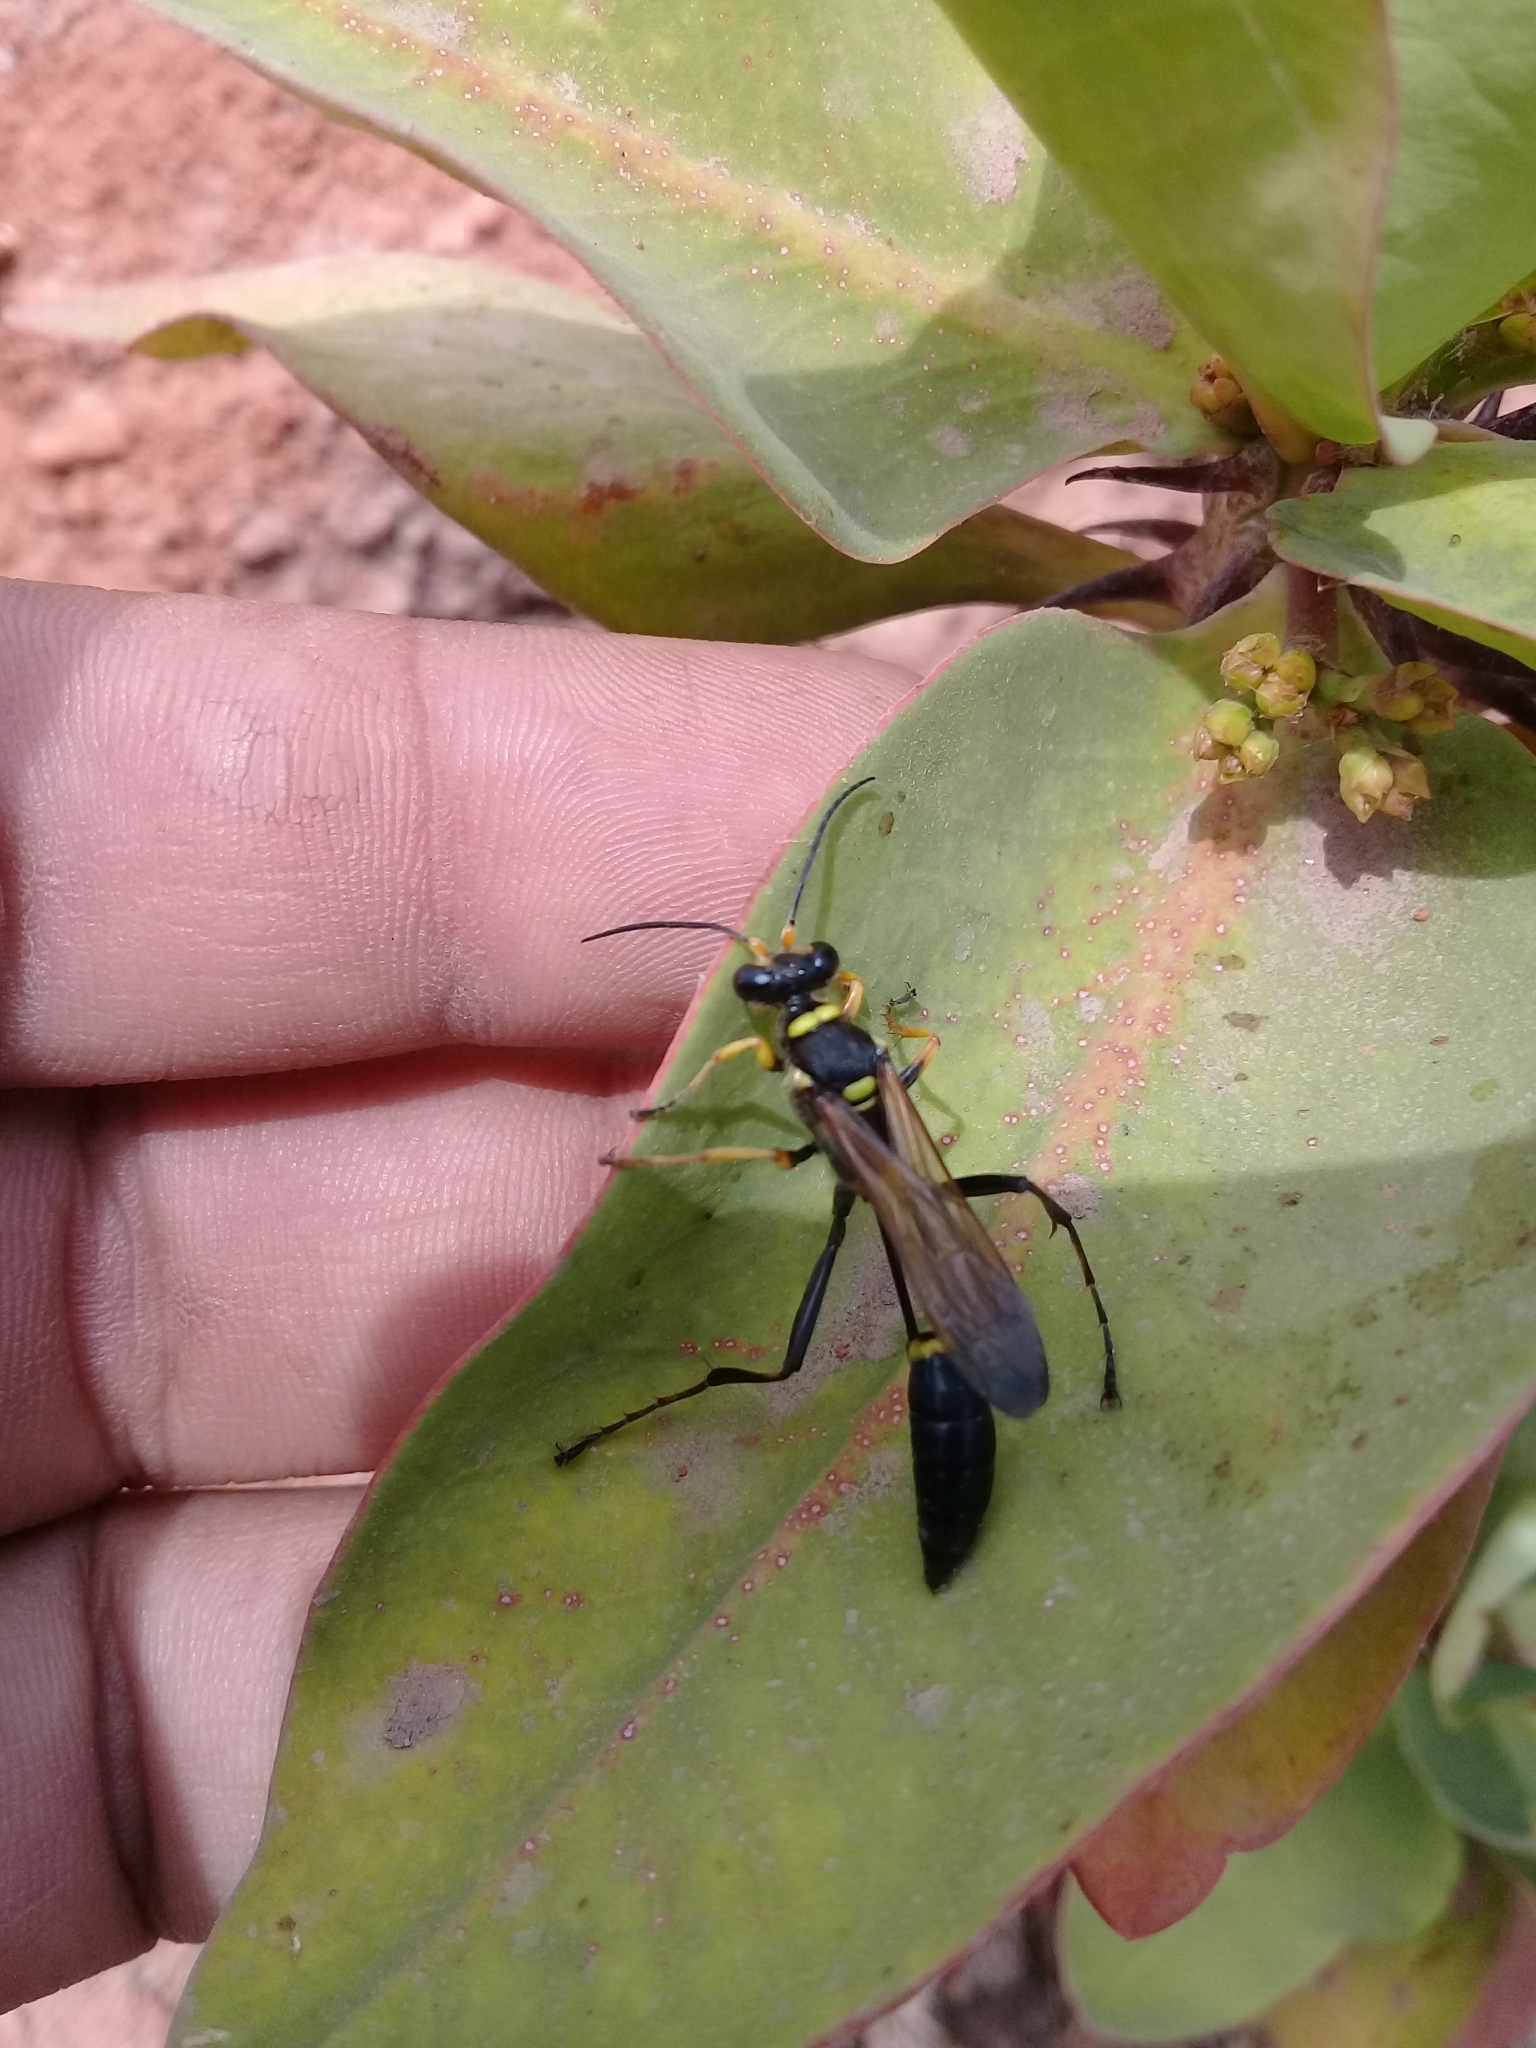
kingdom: Animalia
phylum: Arthropoda
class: Insecta
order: Hymenoptera
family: Sphecidae
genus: Sceliphron
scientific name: Sceliphron assimile
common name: Clayman's mud dauber
